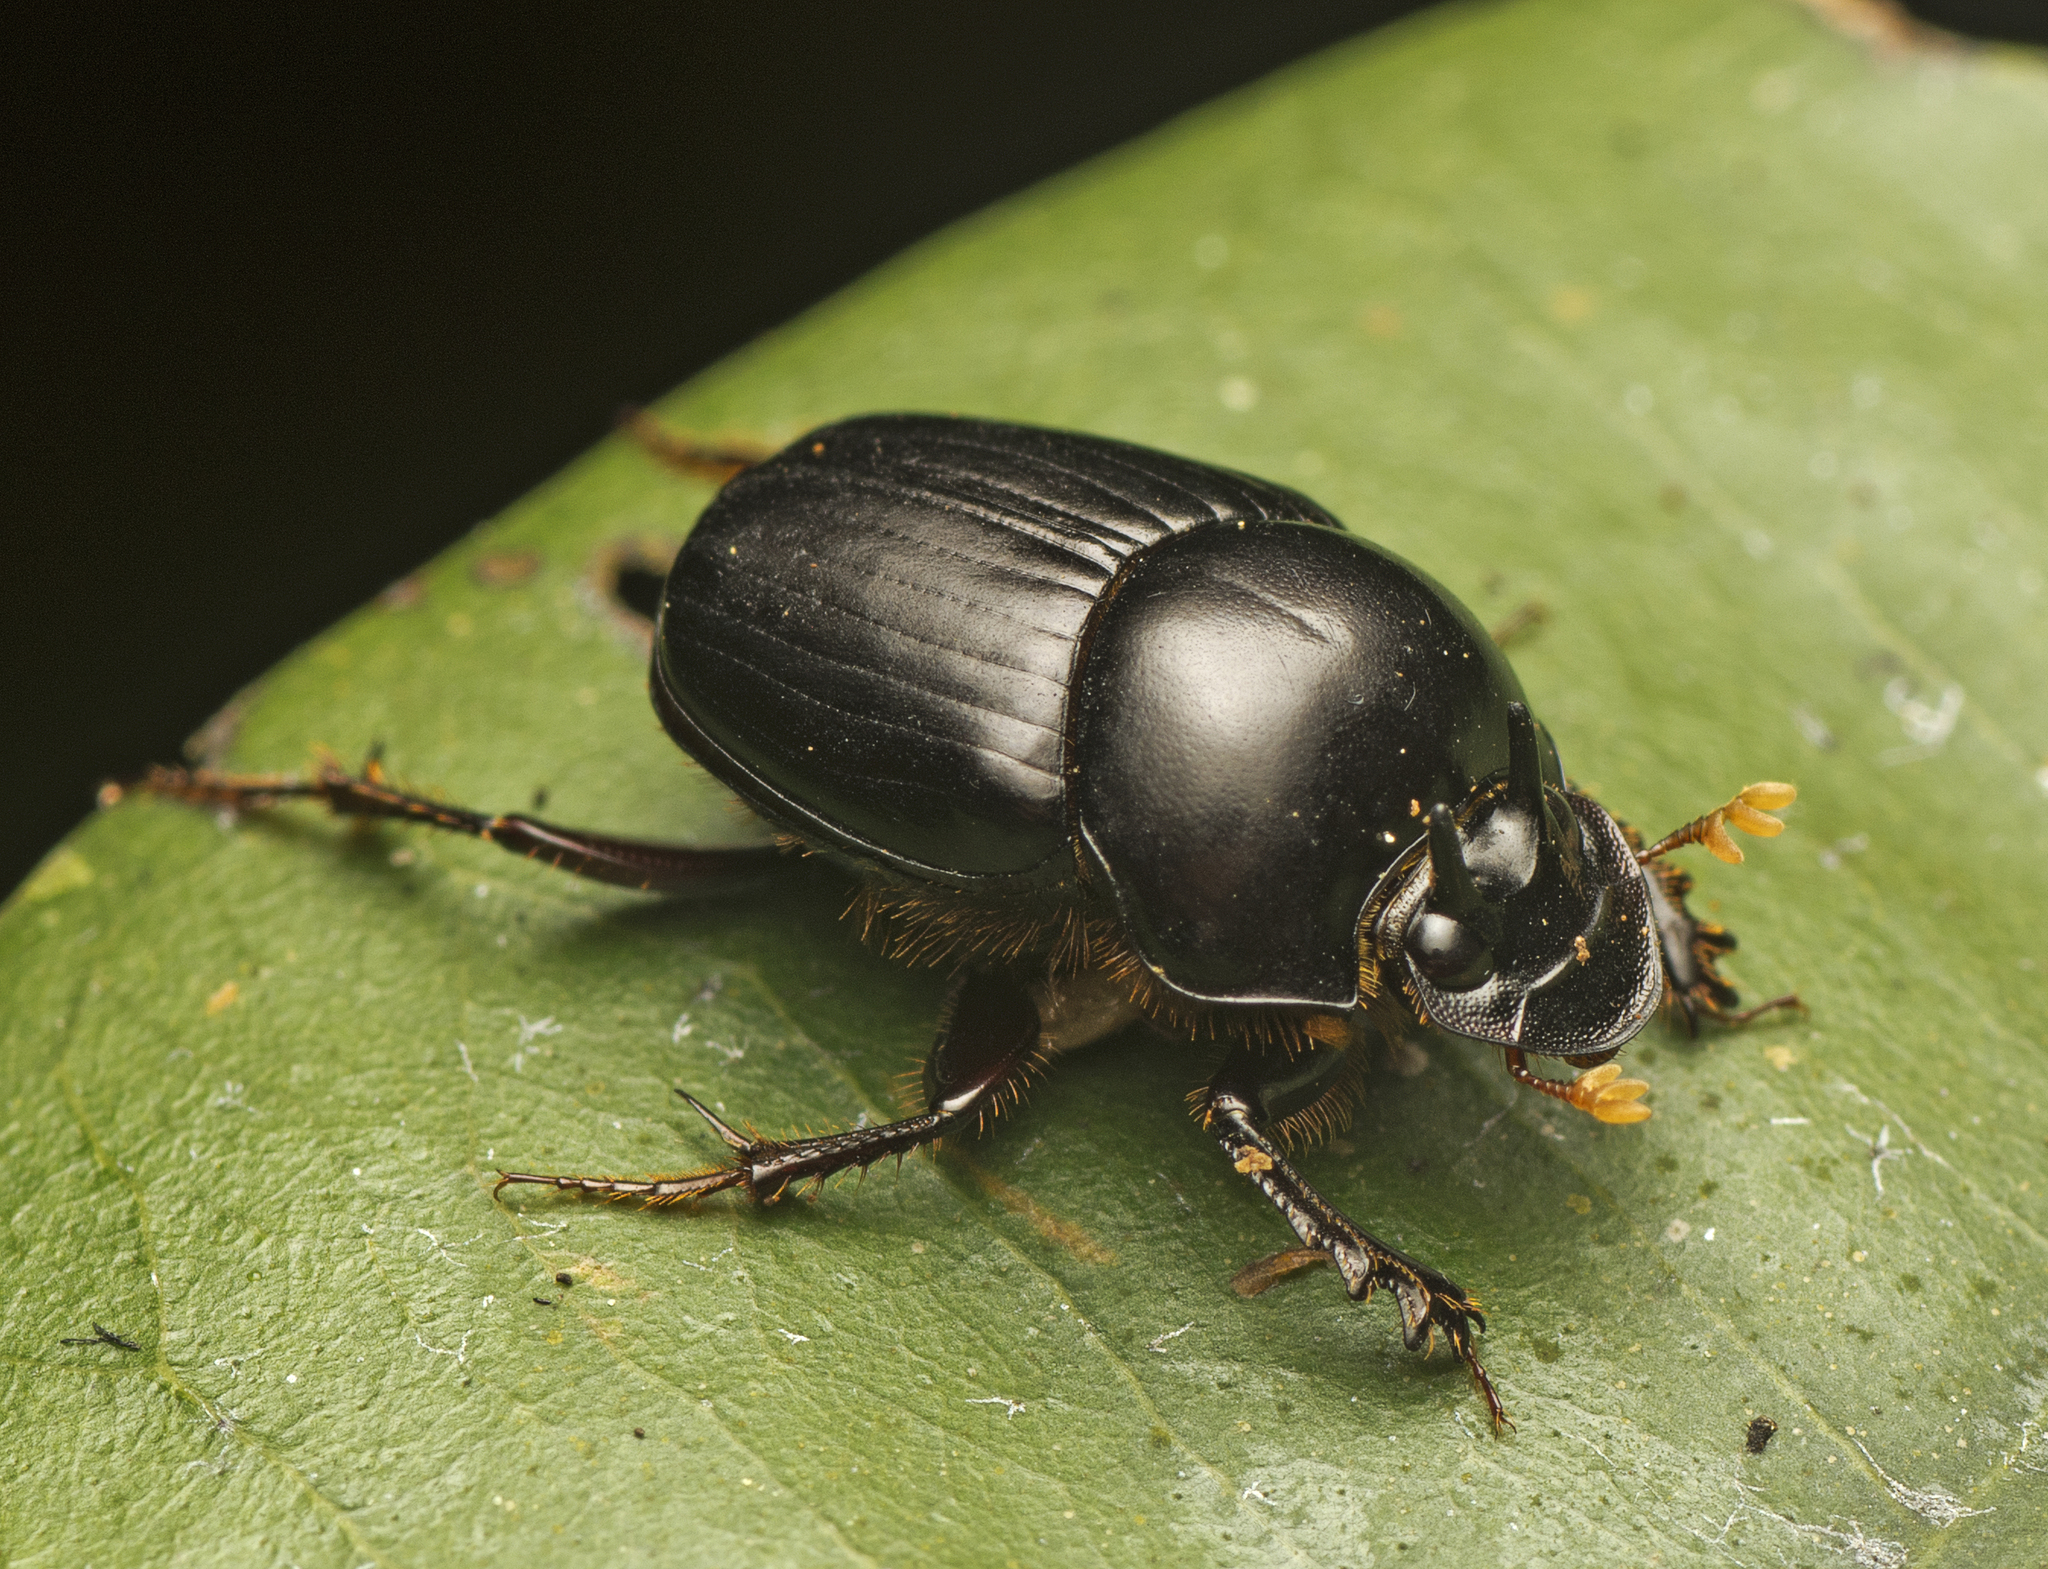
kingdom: Animalia
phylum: Arthropoda
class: Insecta
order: Coleoptera
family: Scarabaeidae
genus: Onthophagus
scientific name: Onthophagus neostenocerus
